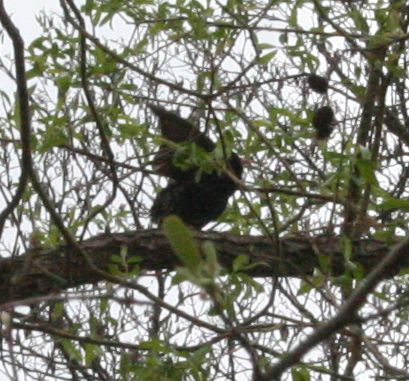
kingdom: Animalia
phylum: Chordata
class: Aves
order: Passeriformes
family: Sturnidae
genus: Sturnus
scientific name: Sturnus vulgaris
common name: Common starling
